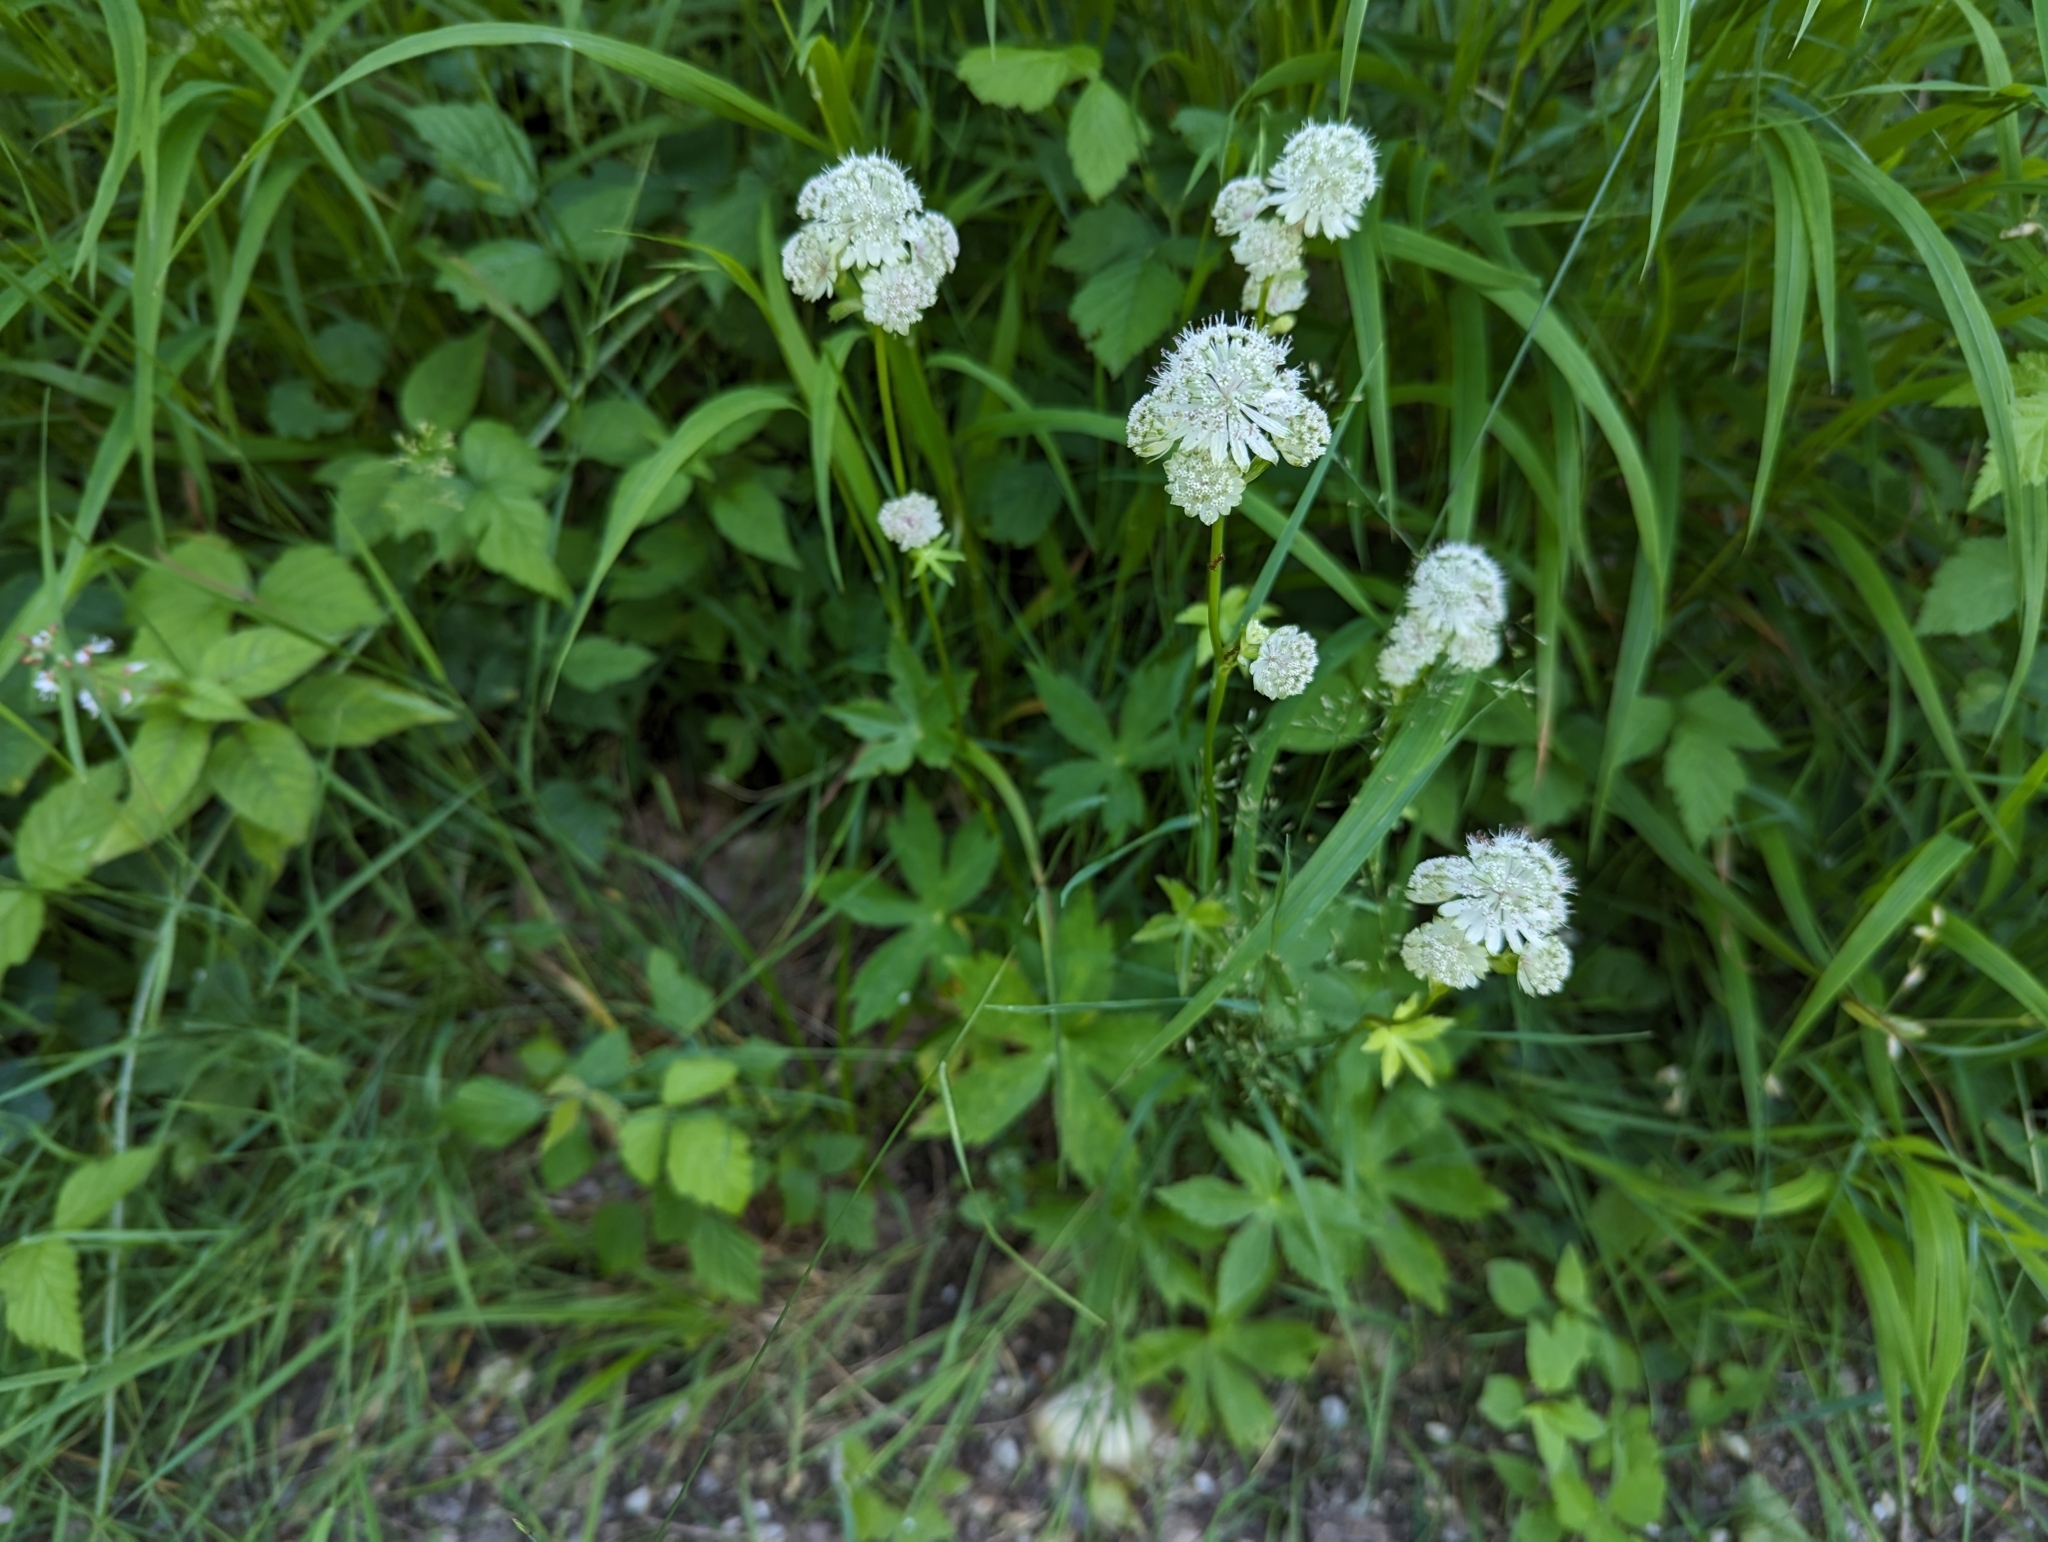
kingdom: Plantae
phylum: Tracheophyta
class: Magnoliopsida
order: Apiales
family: Apiaceae
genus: Astrantia
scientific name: Astrantia major
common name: Greater masterwort
